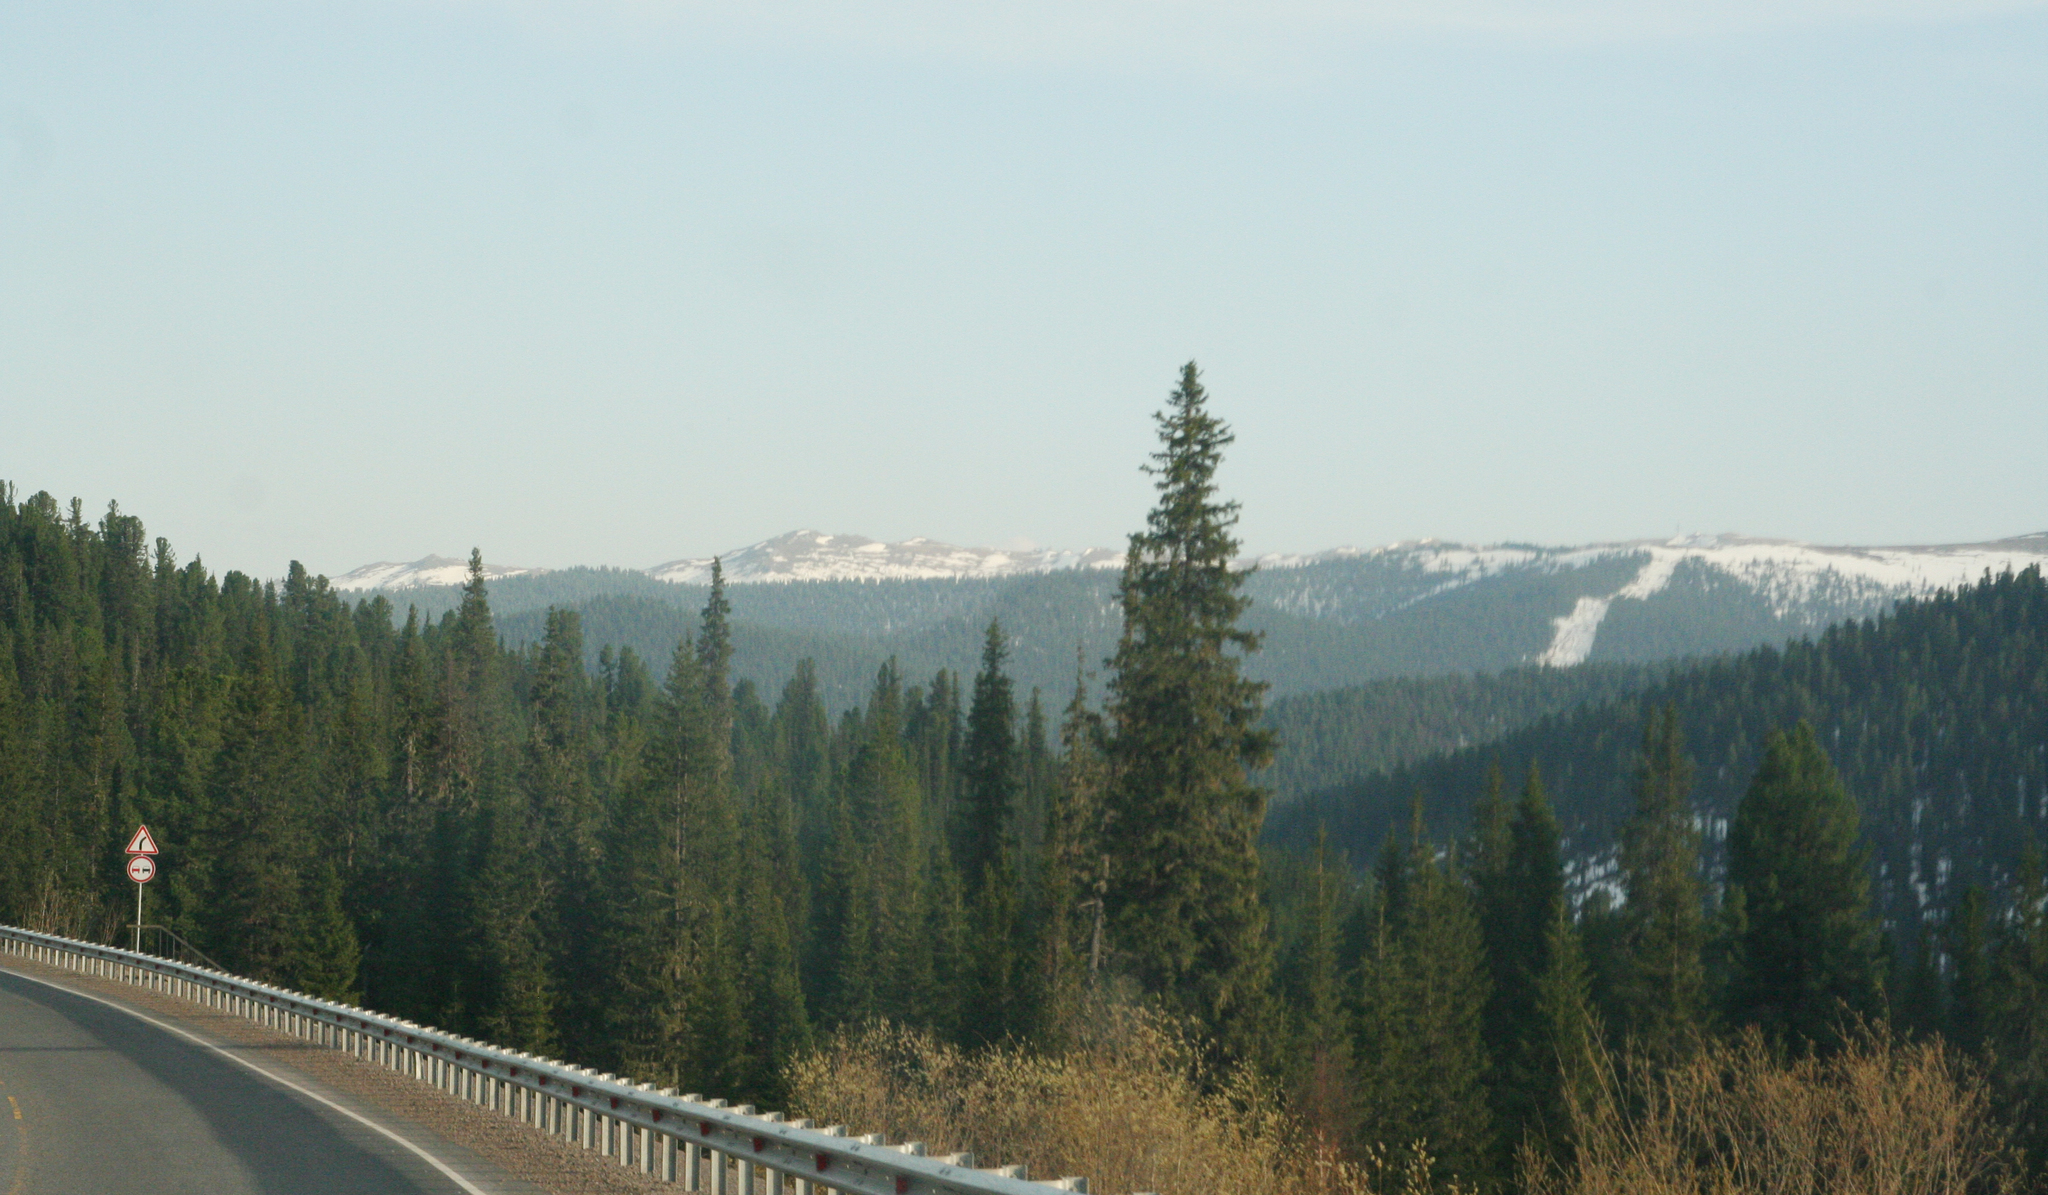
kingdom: Plantae
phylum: Tracheophyta
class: Pinopsida
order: Pinales
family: Pinaceae
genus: Abies
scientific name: Abies sibirica
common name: Siberian fir
